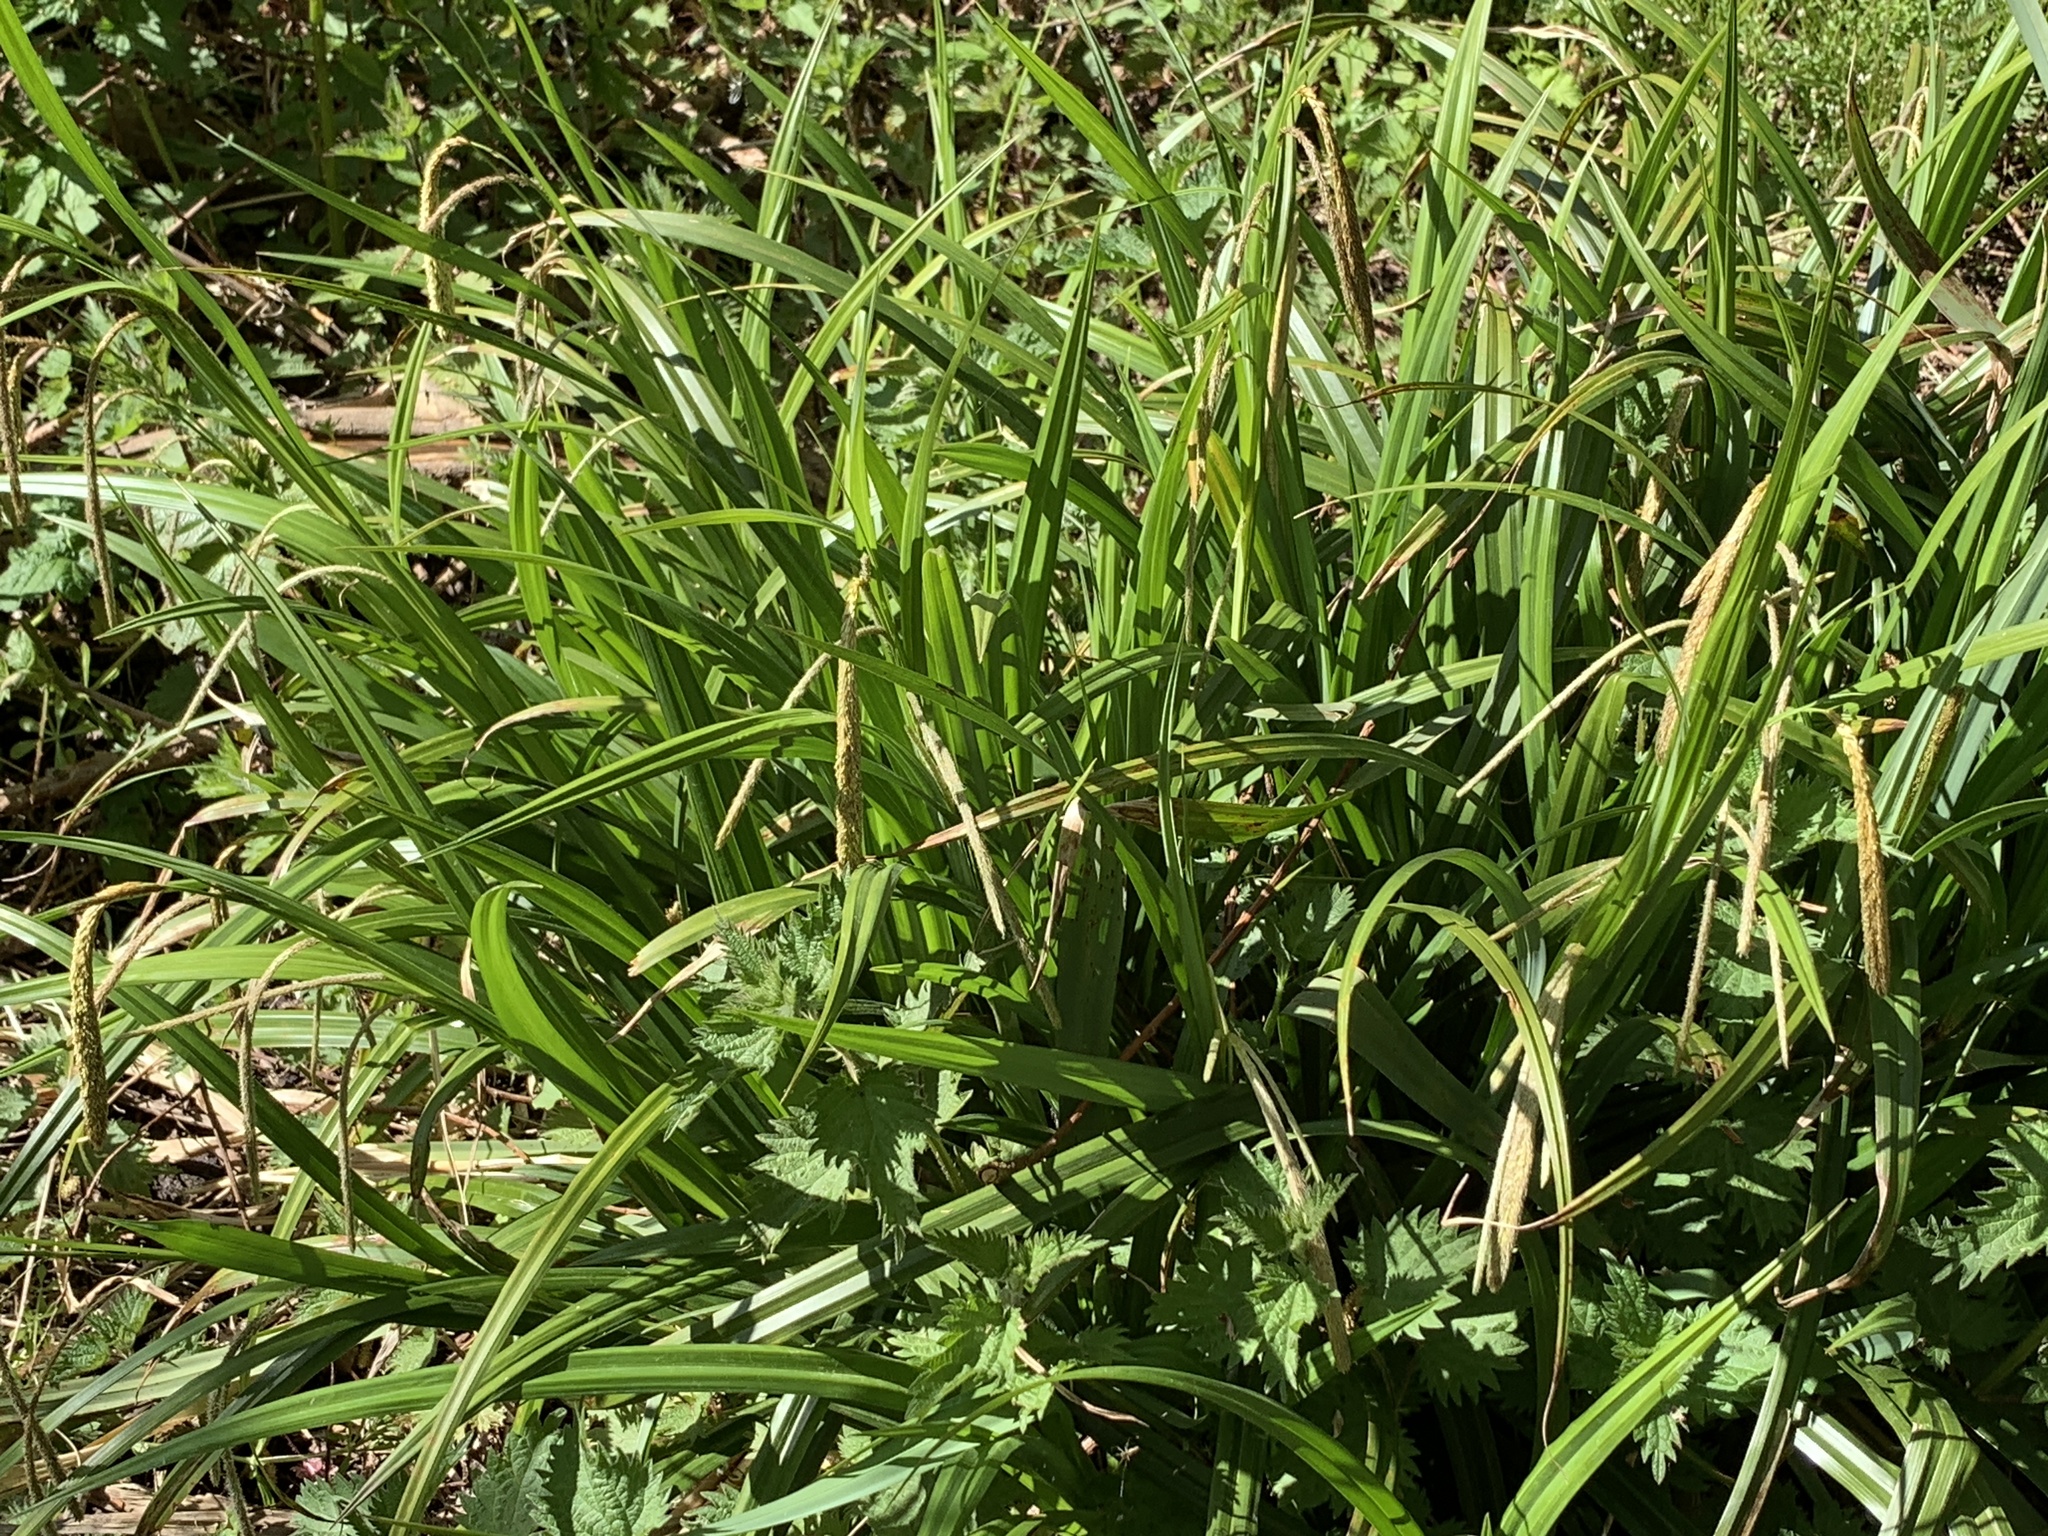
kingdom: Plantae
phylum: Tracheophyta
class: Liliopsida
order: Poales
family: Cyperaceae
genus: Carex
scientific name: Carex pendula
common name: Pendulous sedge
